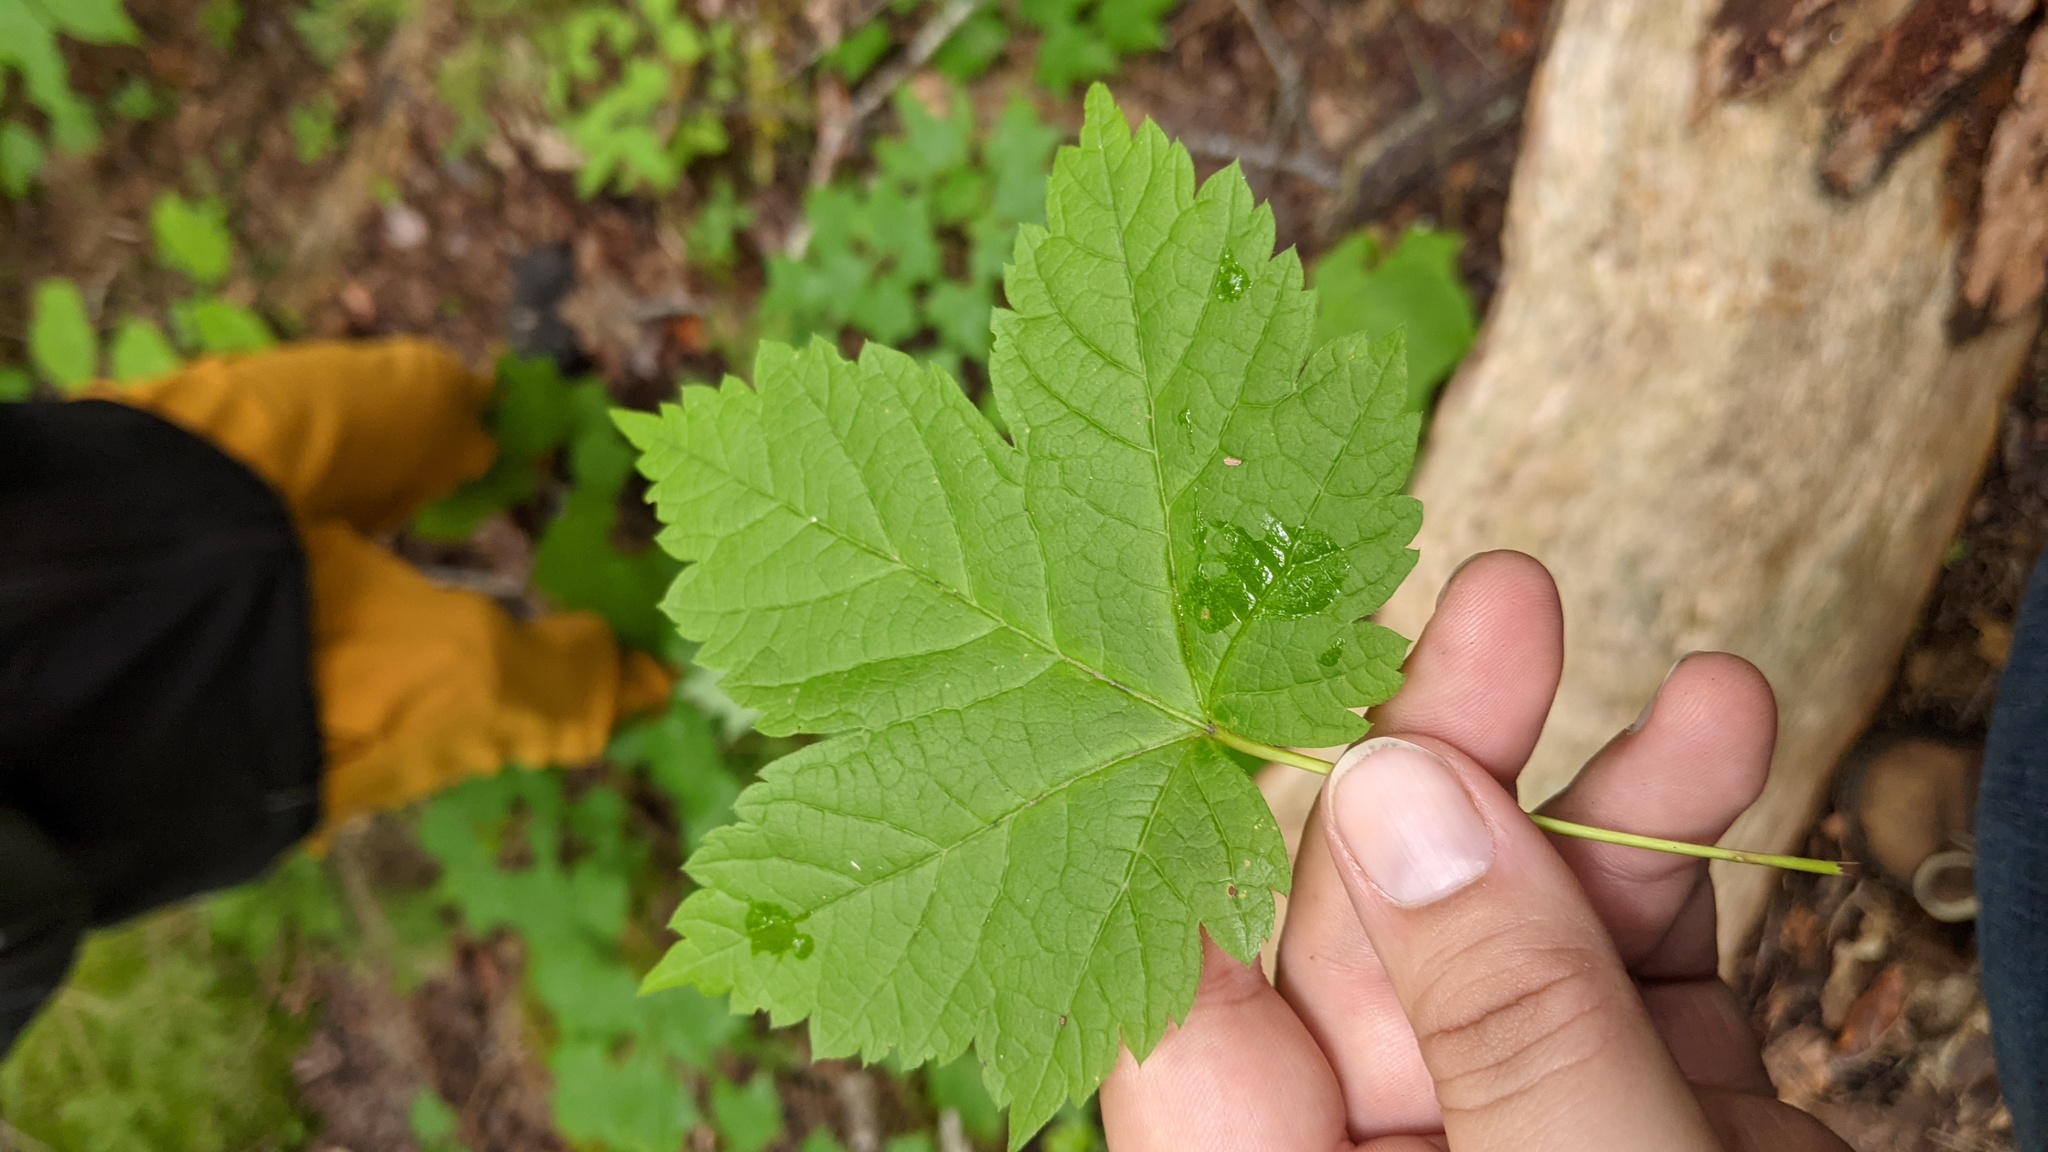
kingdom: Plantae
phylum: Tracheophyta
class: Magnoliopsida
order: Sapindales
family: Sapindaceae
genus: Acer
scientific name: Acer spicatum
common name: Mountain maple
